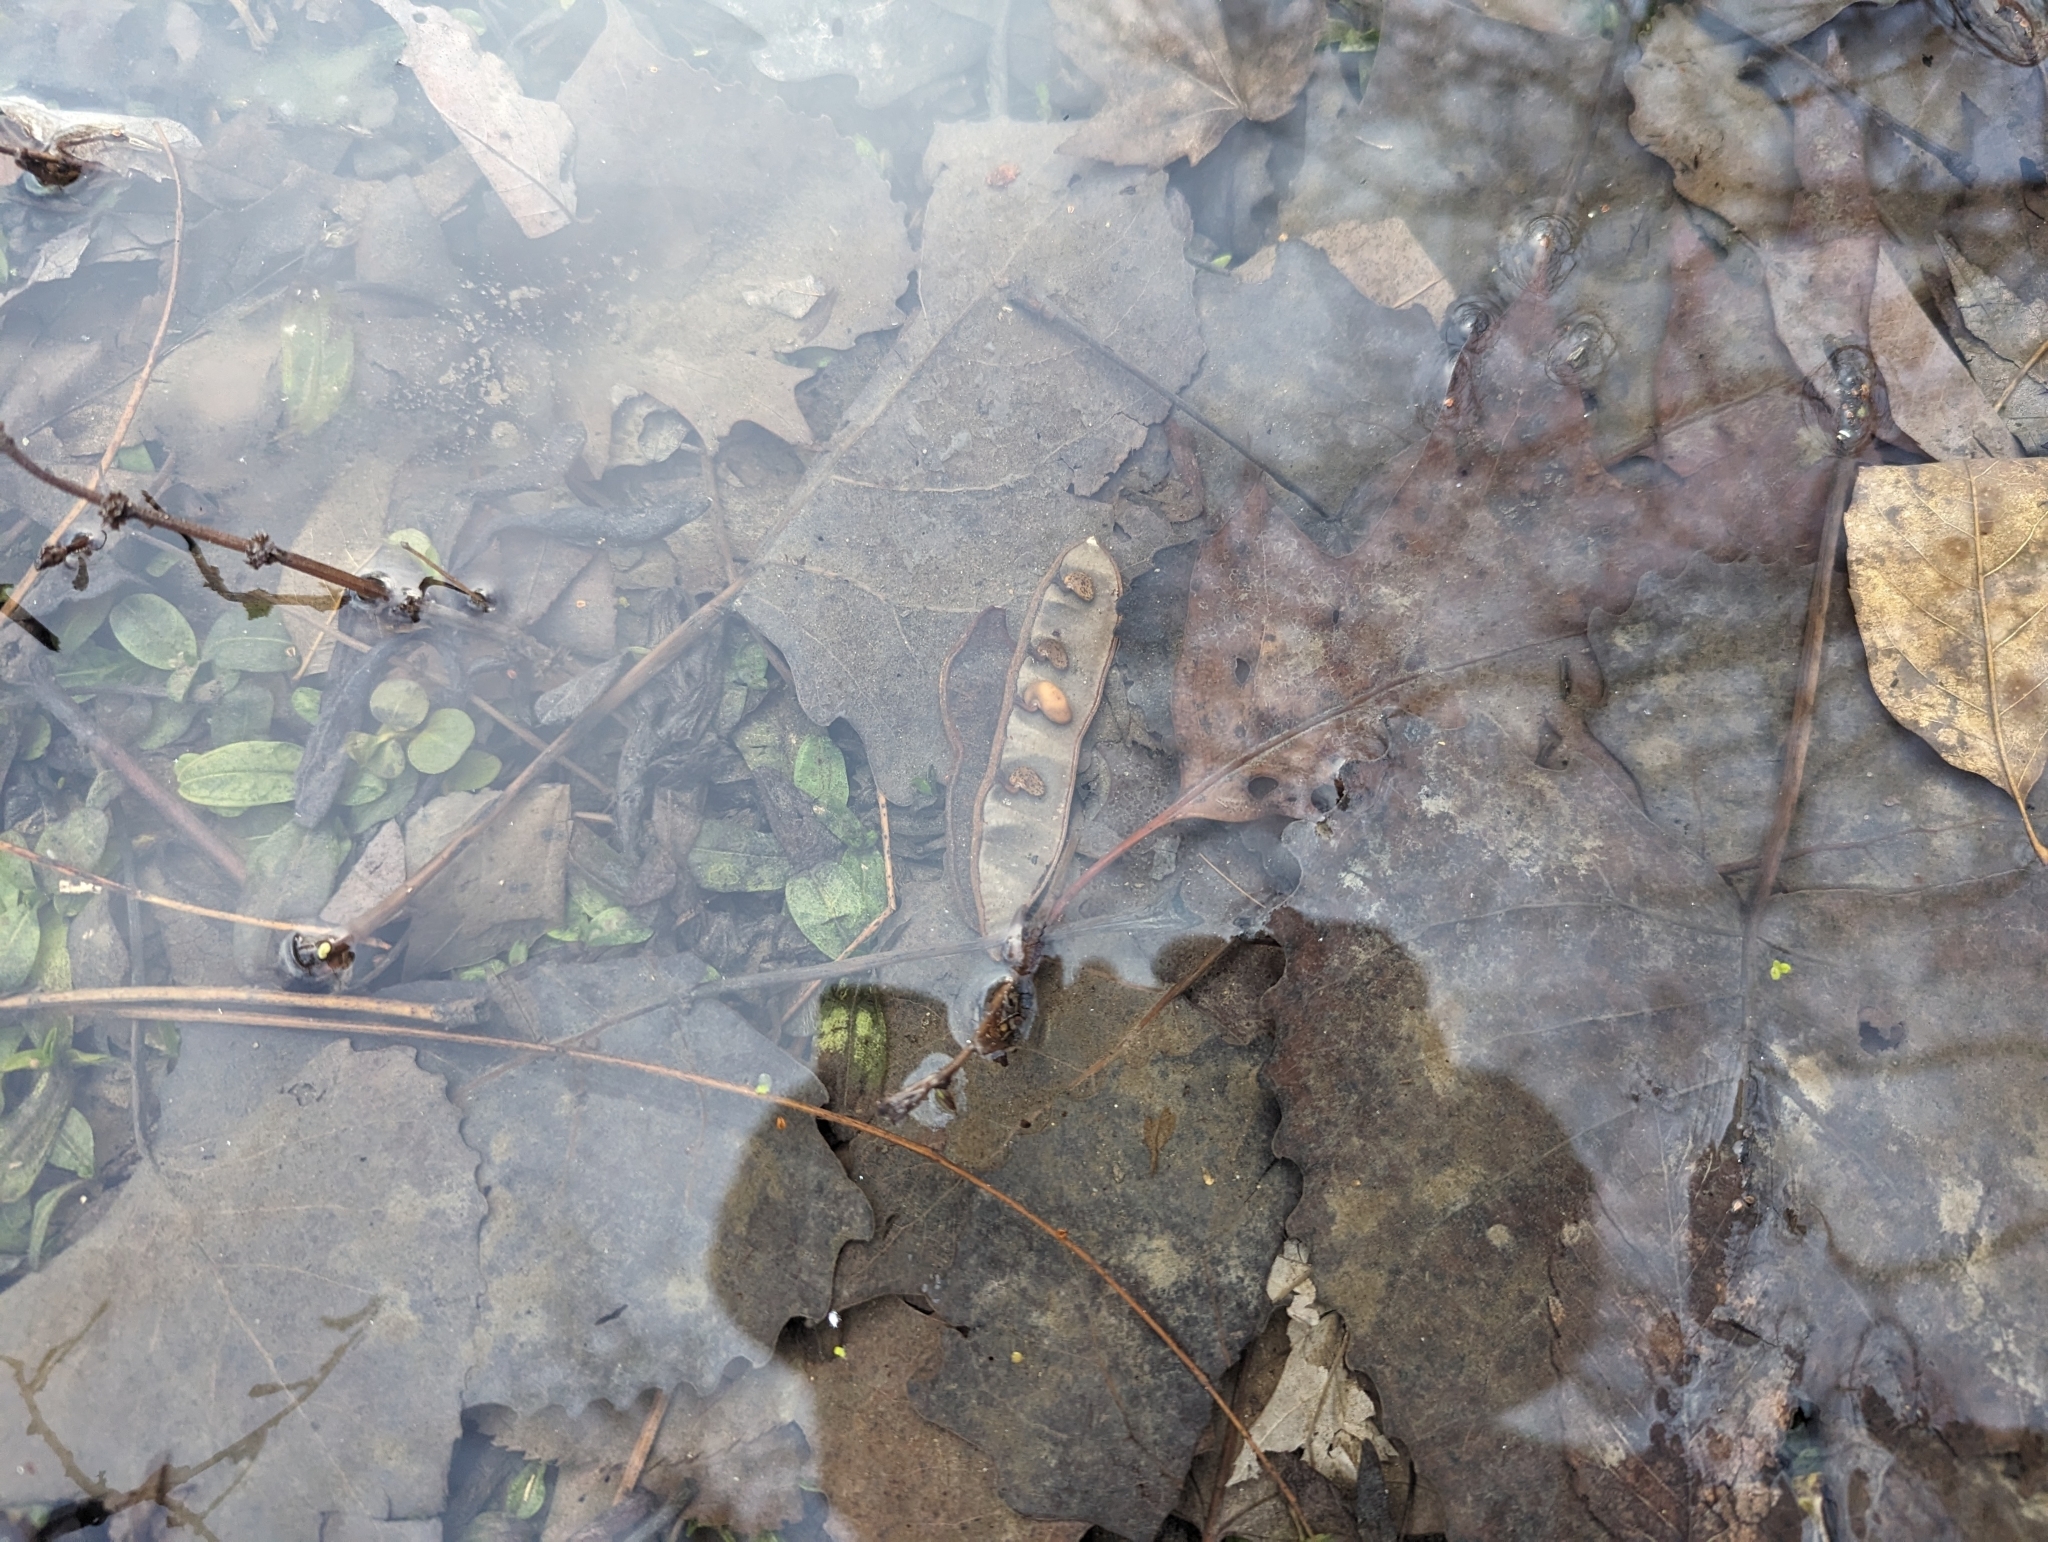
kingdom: Plantae
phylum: Tracheophyta
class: Magnoliopsida
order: Fabales
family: Fabaceae
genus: Robinia
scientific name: Robinia pseudoacacia
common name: Black locust
